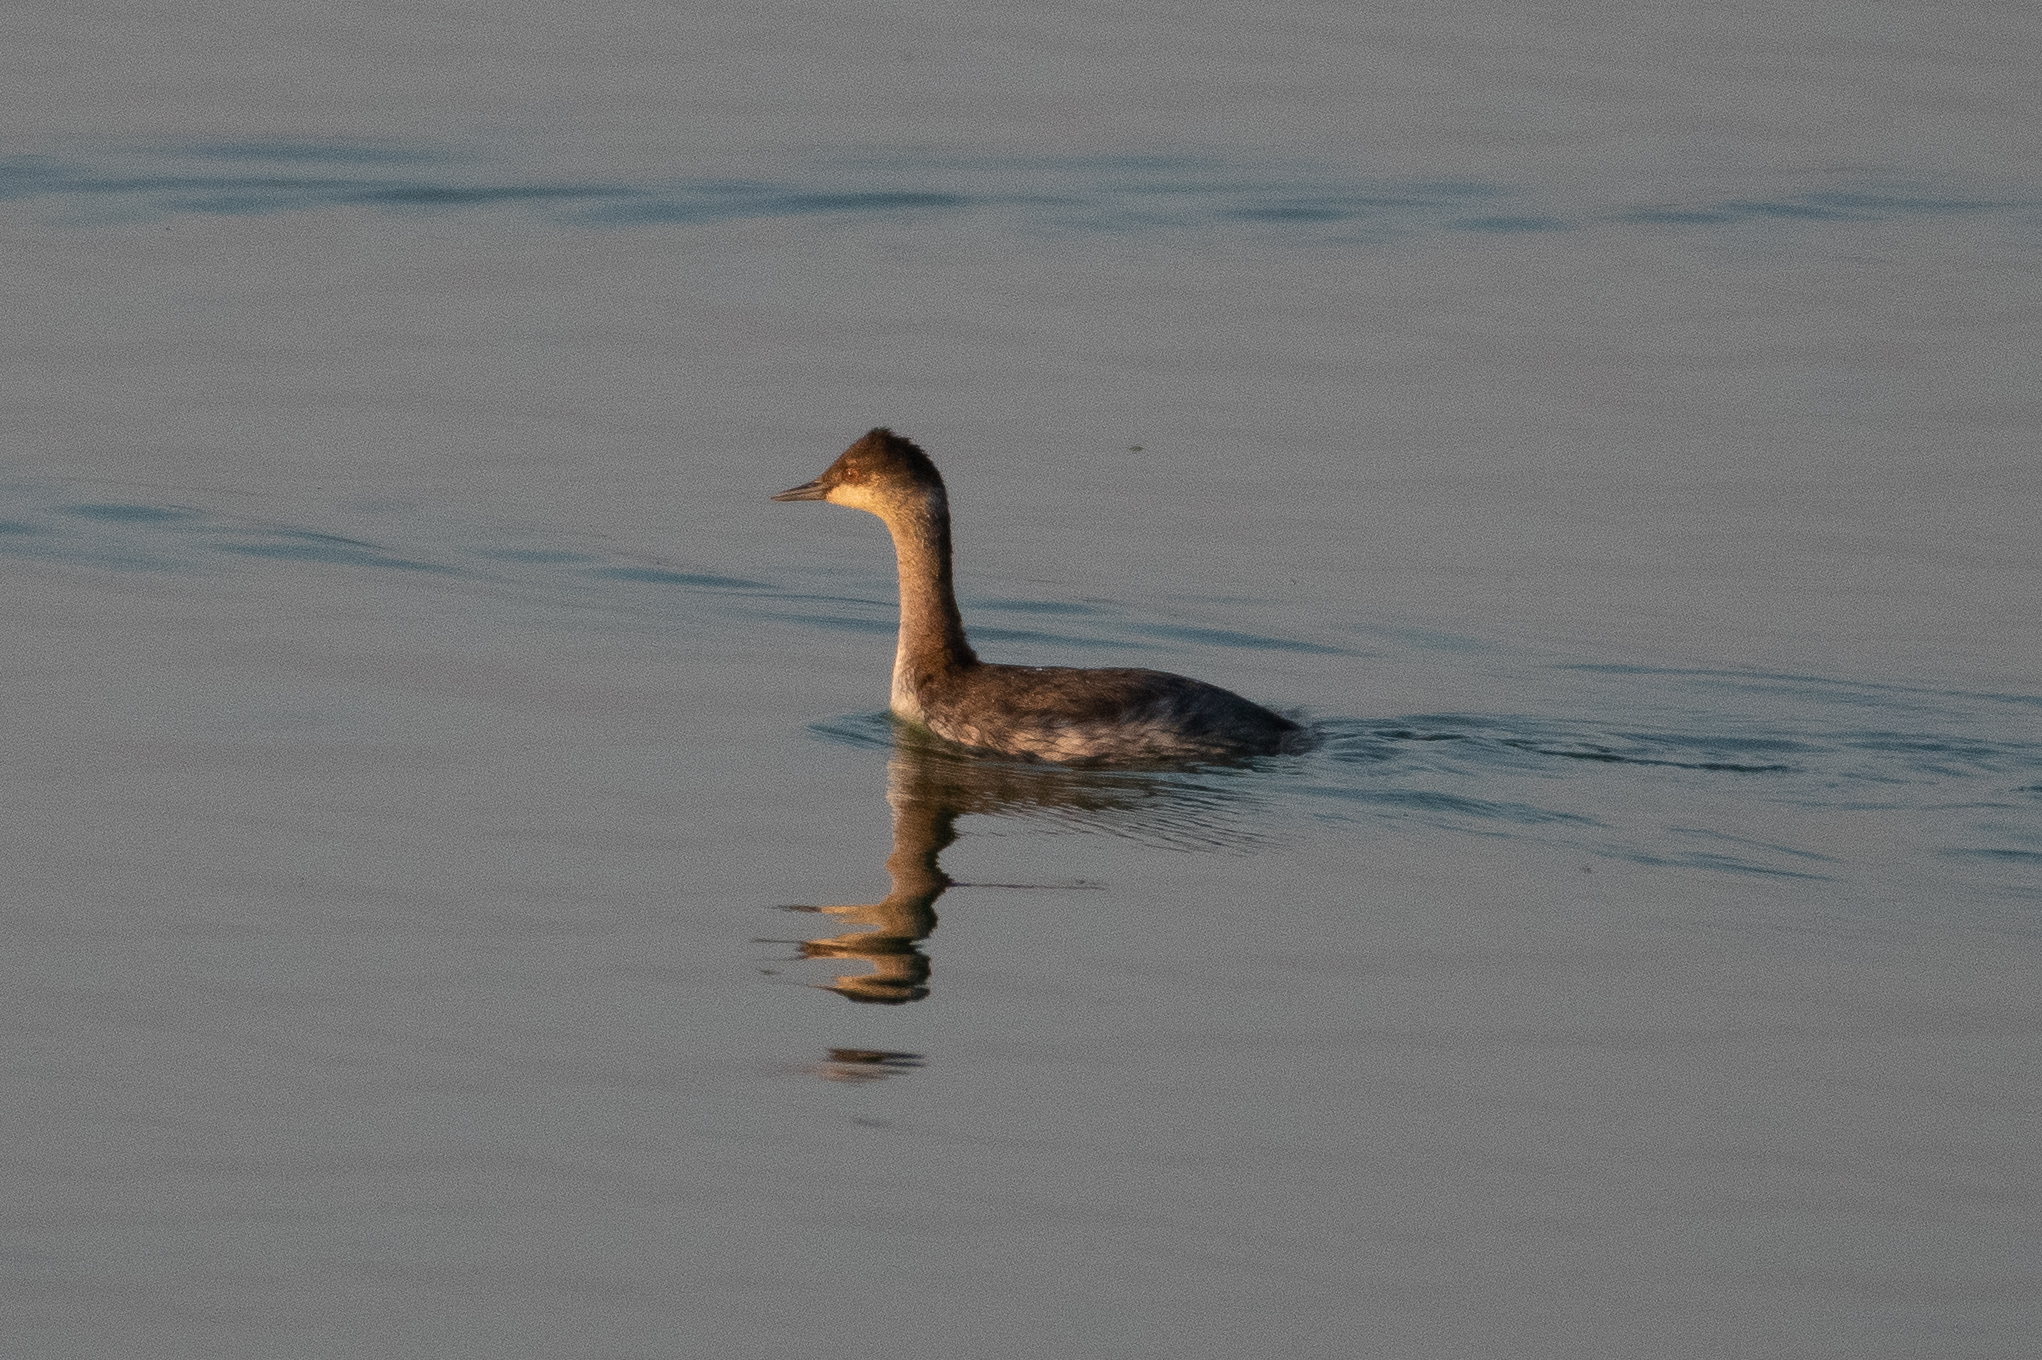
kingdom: Animalia
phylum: Chordata
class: Aves
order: Podicipediformes
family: Podicipedidae
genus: Podiceps
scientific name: Podiceps nigricollis
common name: Black-necked grebe
